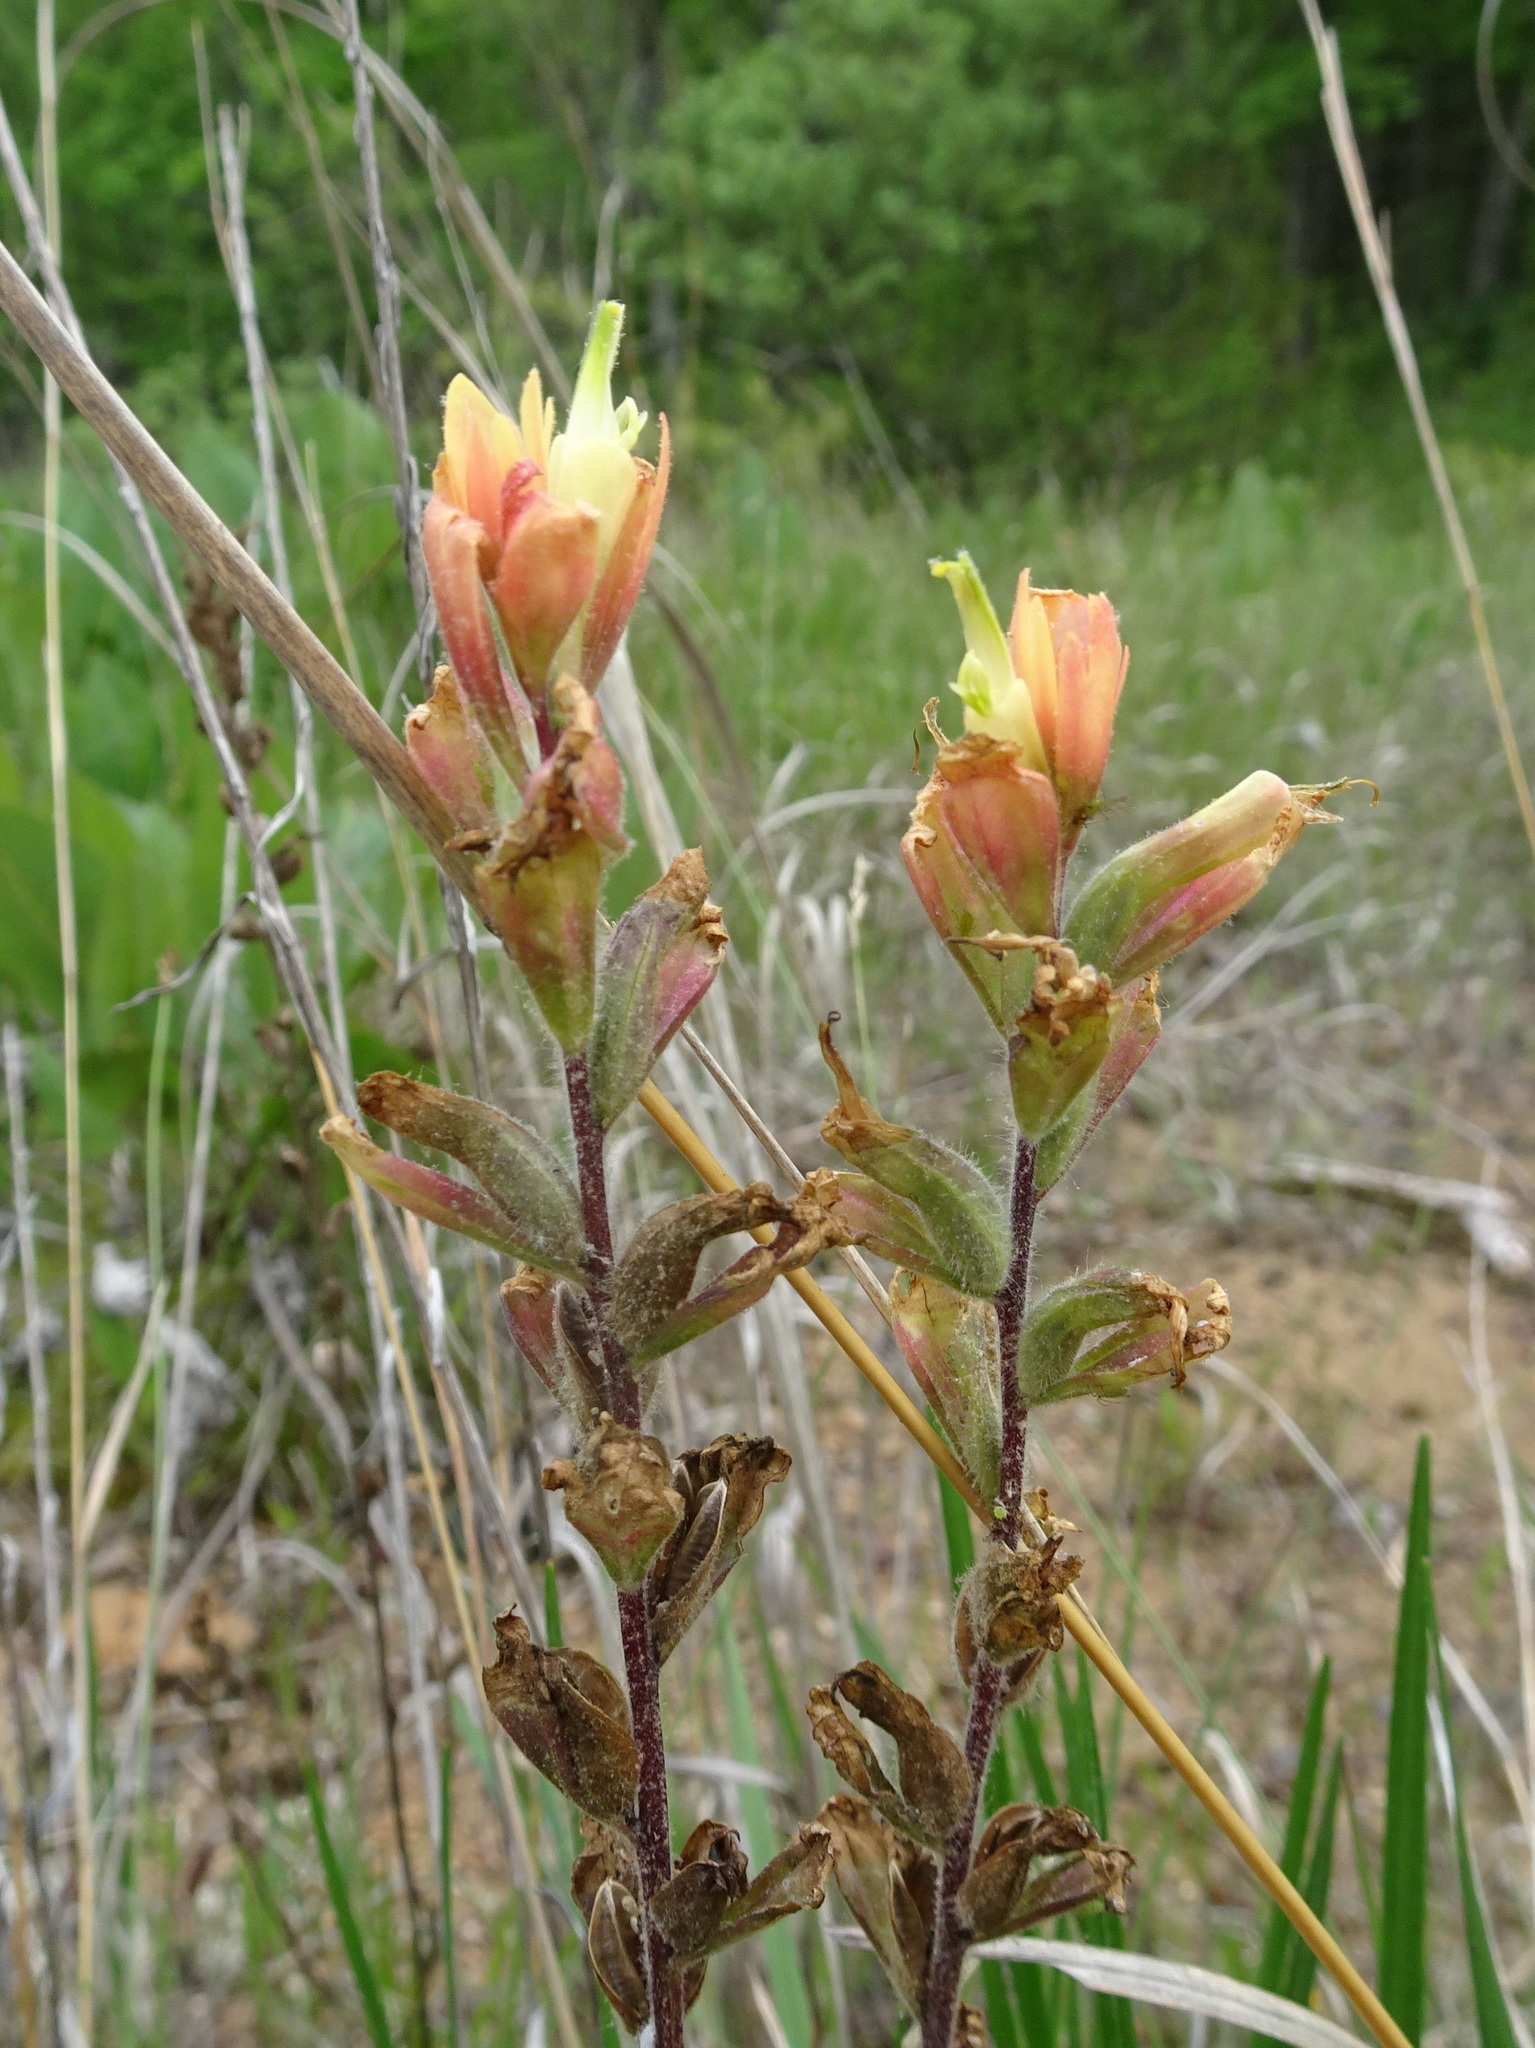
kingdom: Plantae
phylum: Tracheophyta
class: Magnoliopsida
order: Lamiales
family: Orobanchaceae
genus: Castilleja
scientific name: Castilleja coccinea
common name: Scarlet paintbrush
